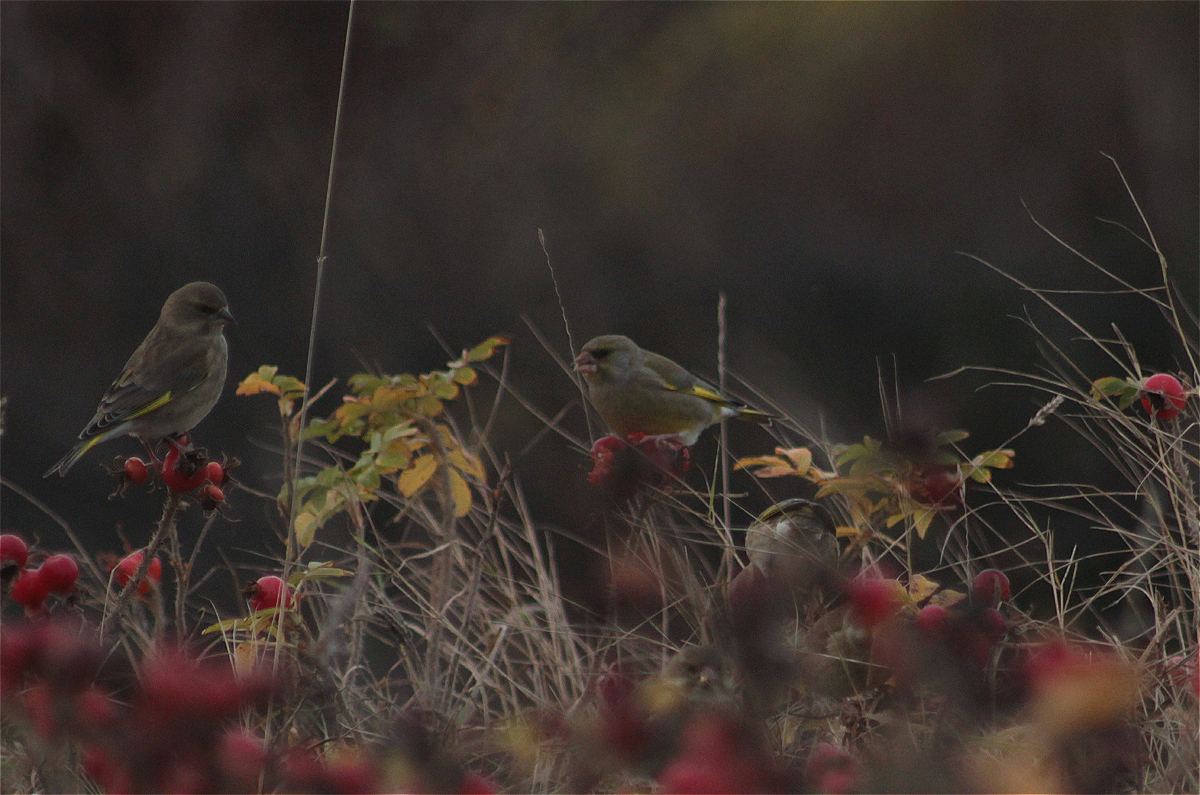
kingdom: Plantae
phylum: Tracheophyta
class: Liliopsida
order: Poales
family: Poaceae
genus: Chloris
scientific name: Chloris chloris
